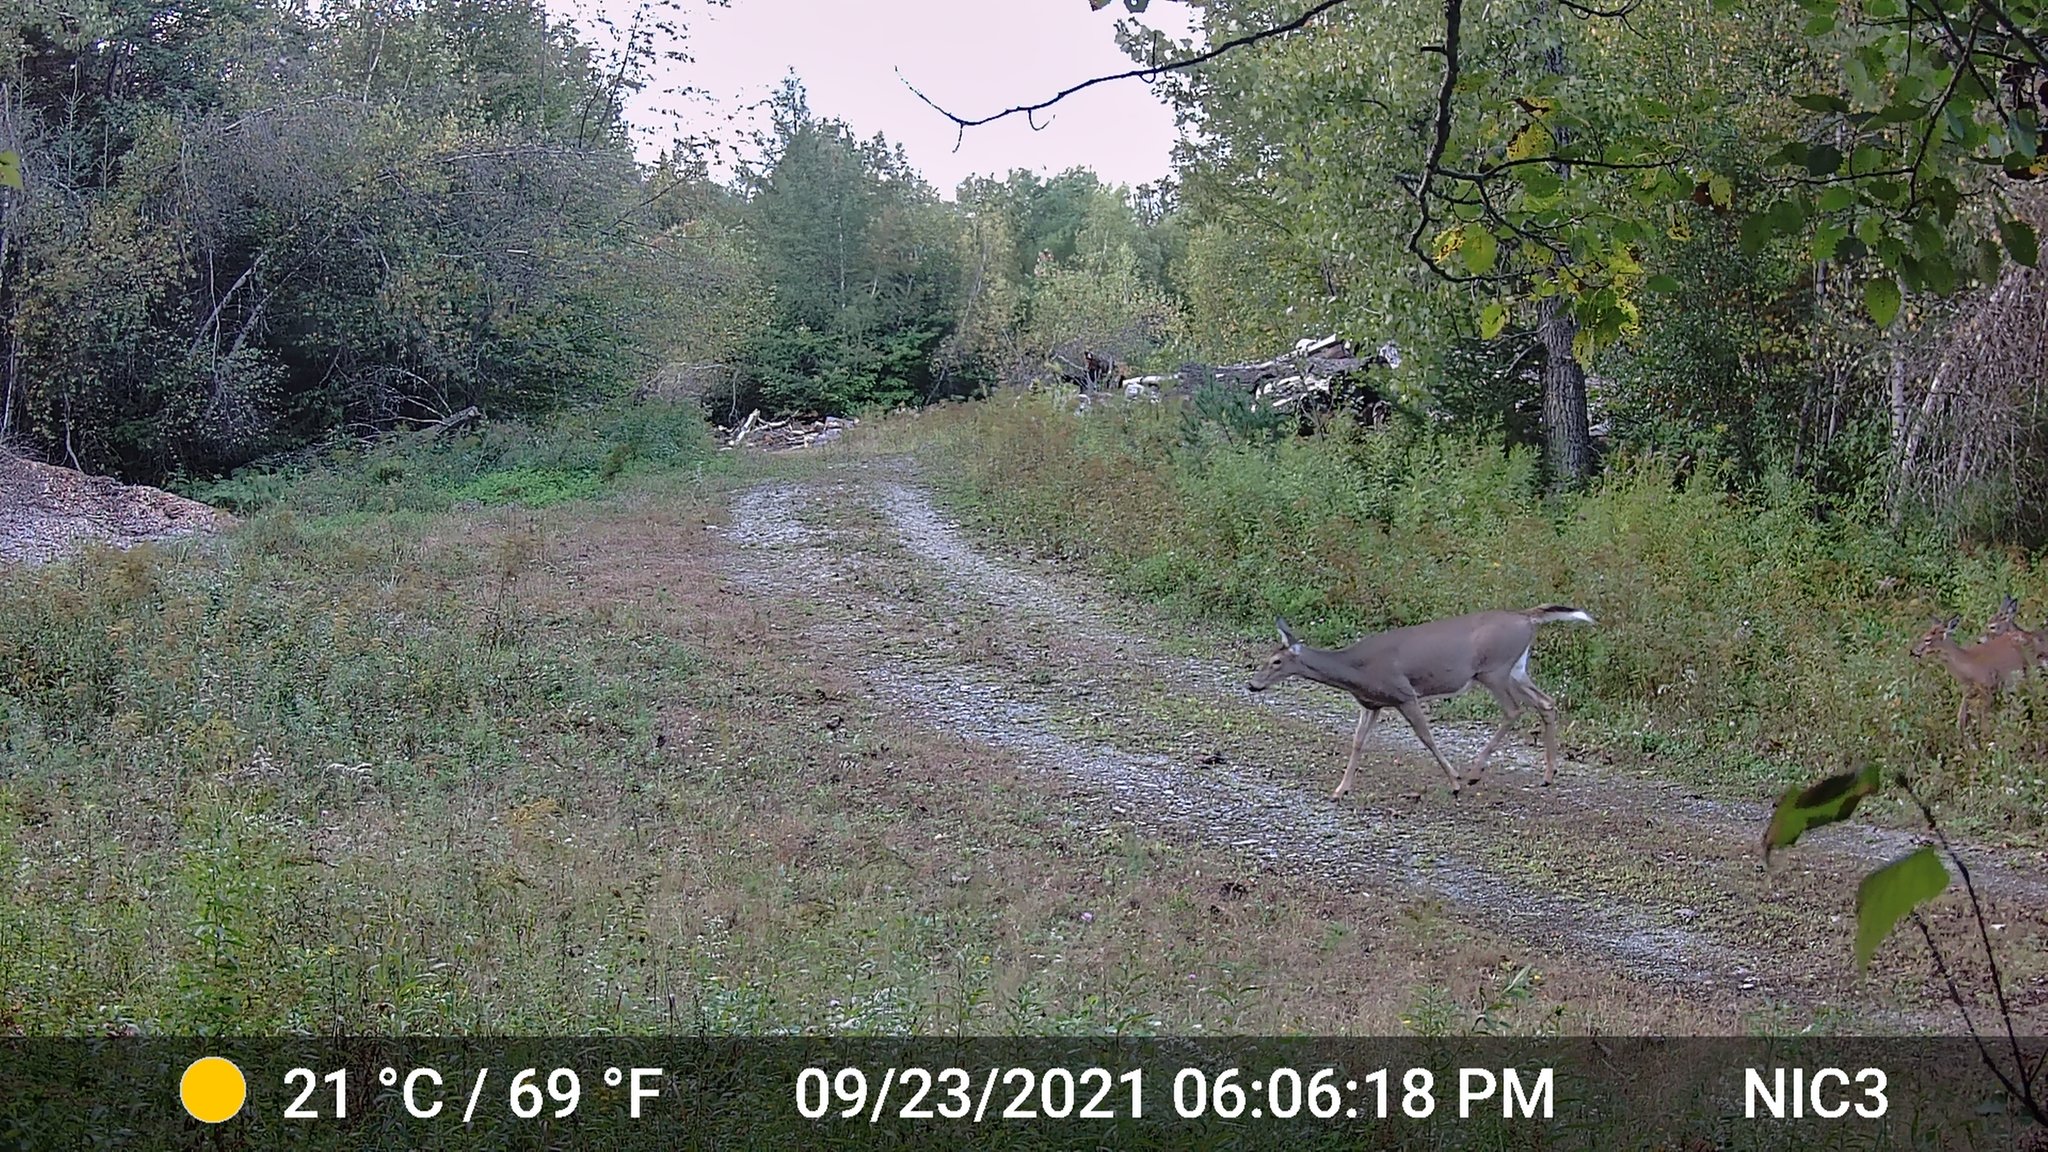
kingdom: Animalia
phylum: Chordata
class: Mammalia
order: Artiodactyla
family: Cervidae
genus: Odocoileus
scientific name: Odocoileus virginianus
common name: White-tailed deer
